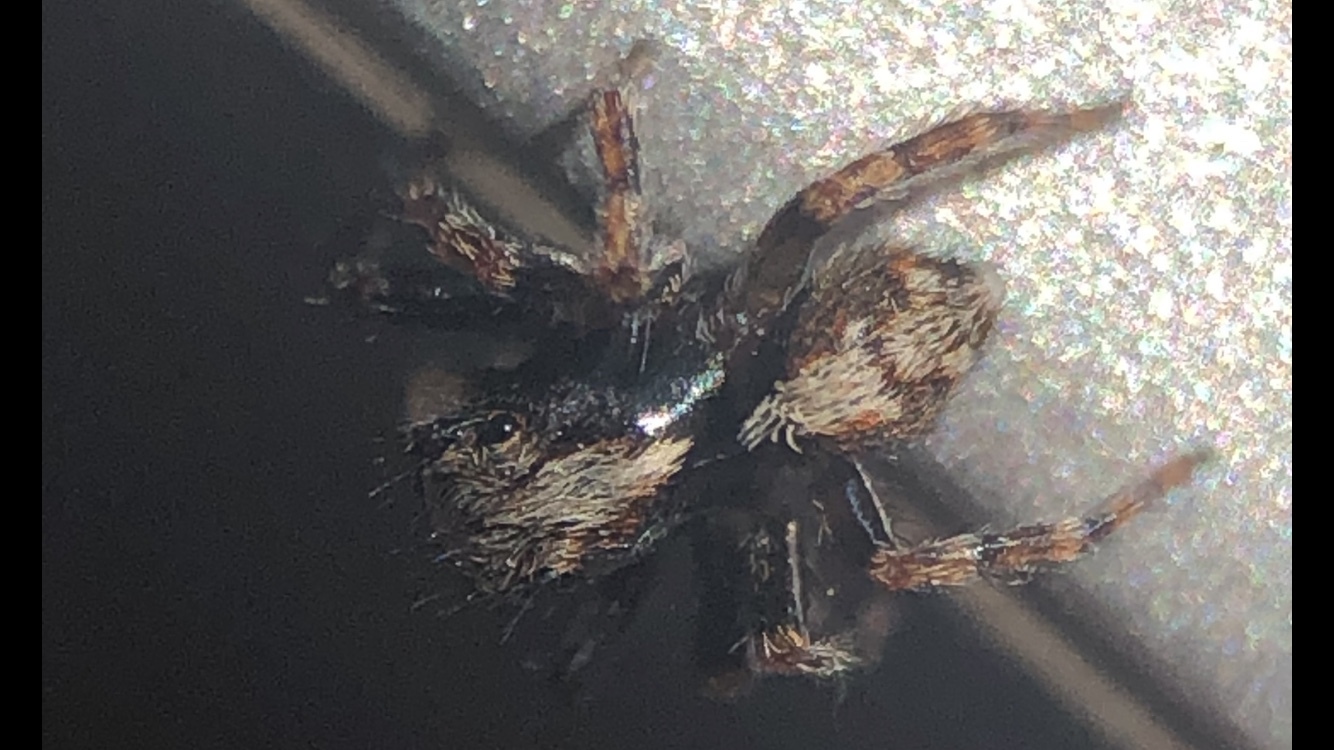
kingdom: Animalia
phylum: Arthropoda
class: Arachnida
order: Araneae
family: Salticidae
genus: Pseudeuophrys
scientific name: Pseudeuophrys lanigera
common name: Jumping spider
